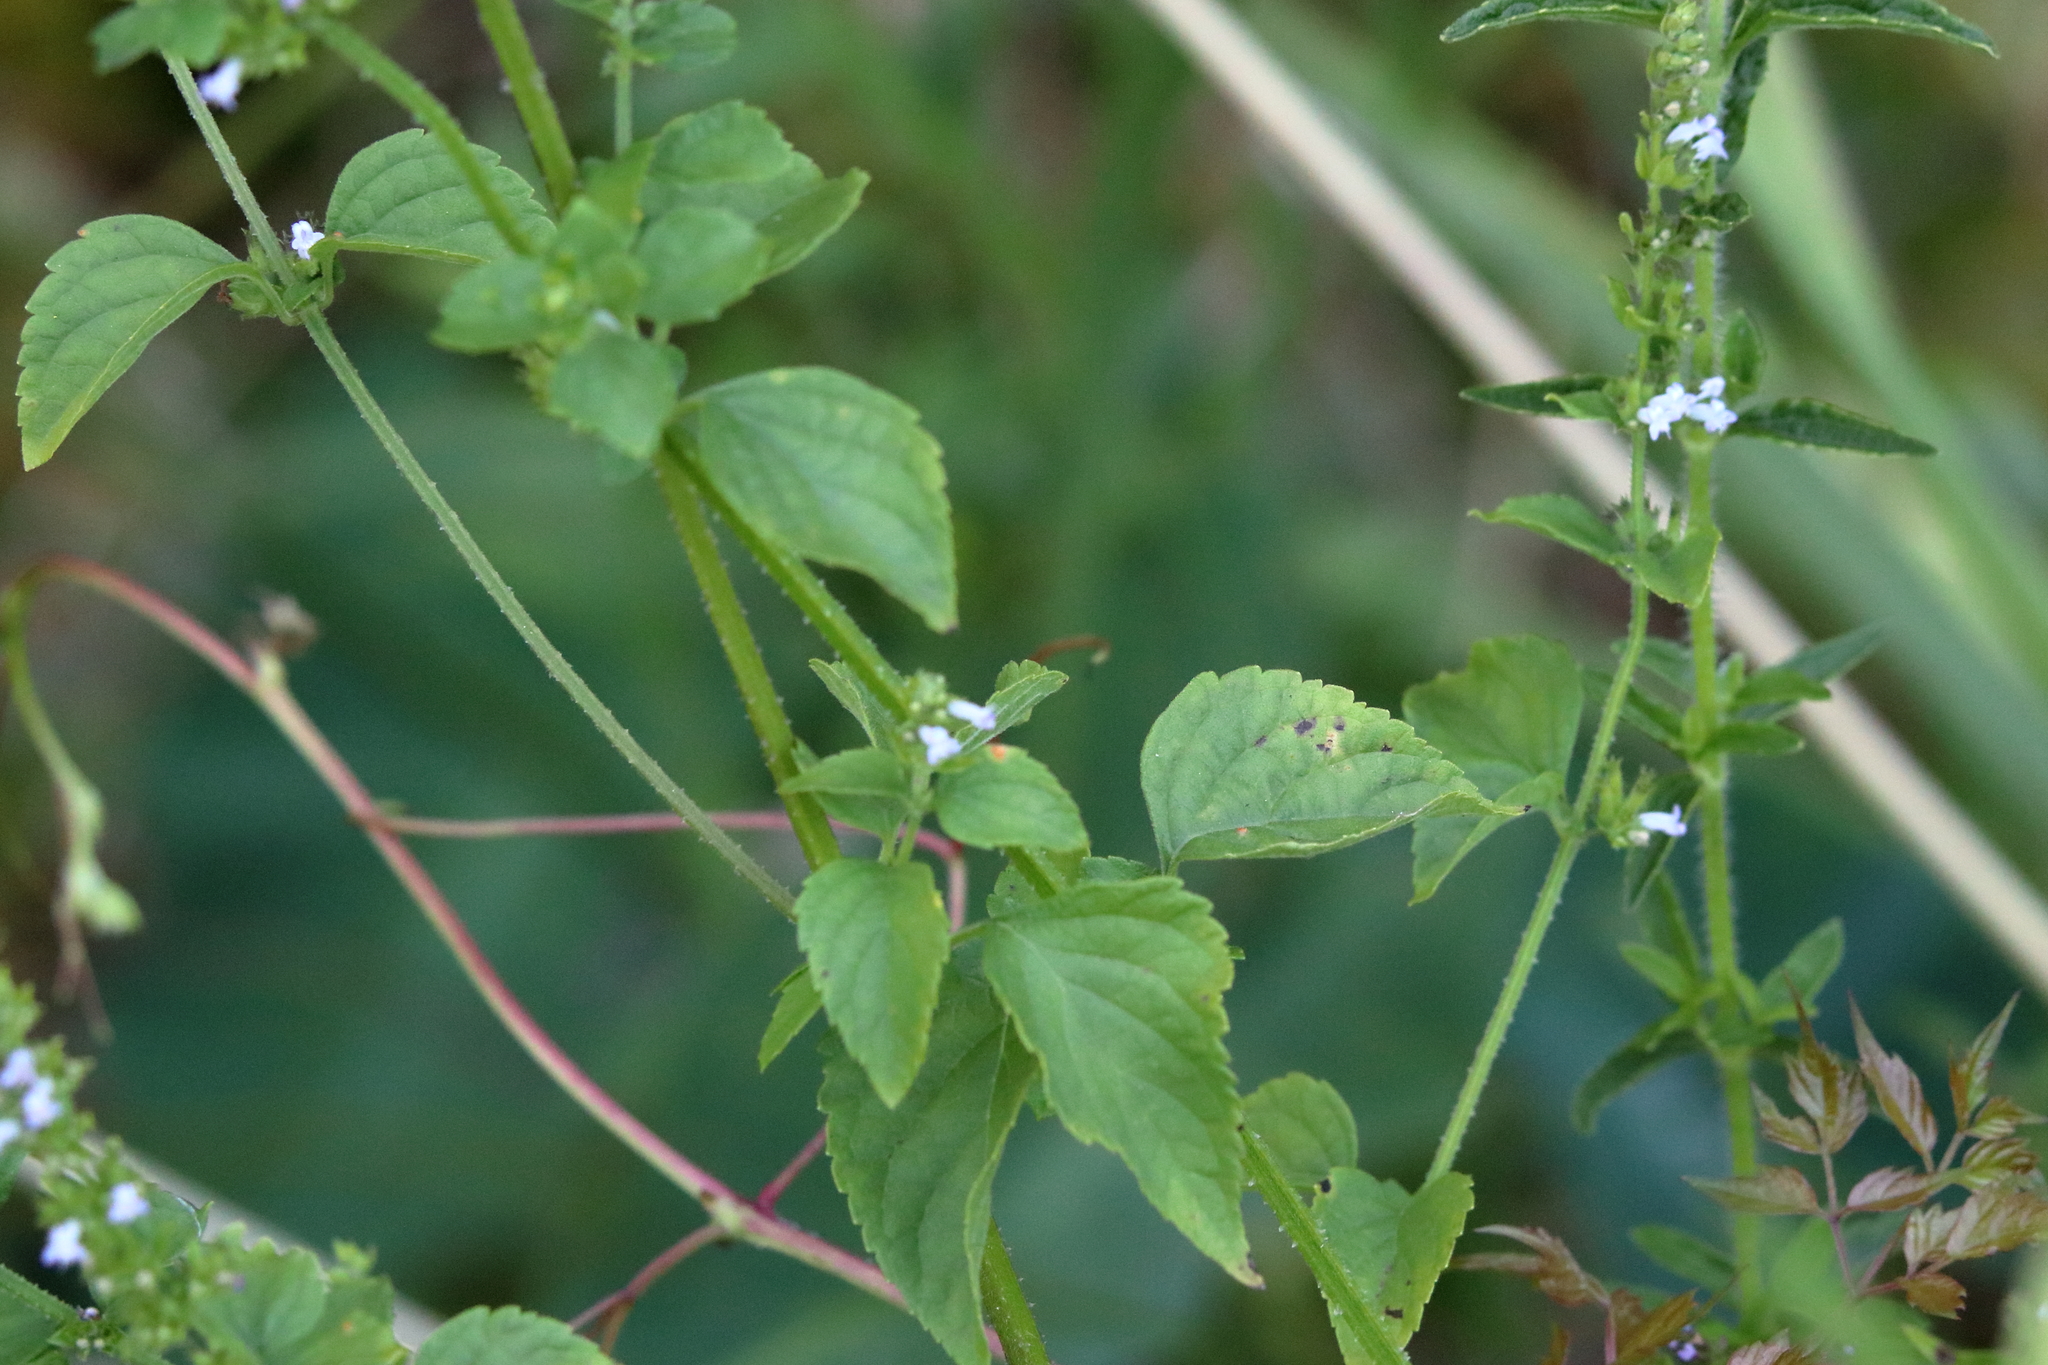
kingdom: Plantae
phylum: Tracheophyta
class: Magnoliopsida
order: Lamiales
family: Lamiaceae
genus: Cantinoa
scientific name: Cantinoa mutabilis
